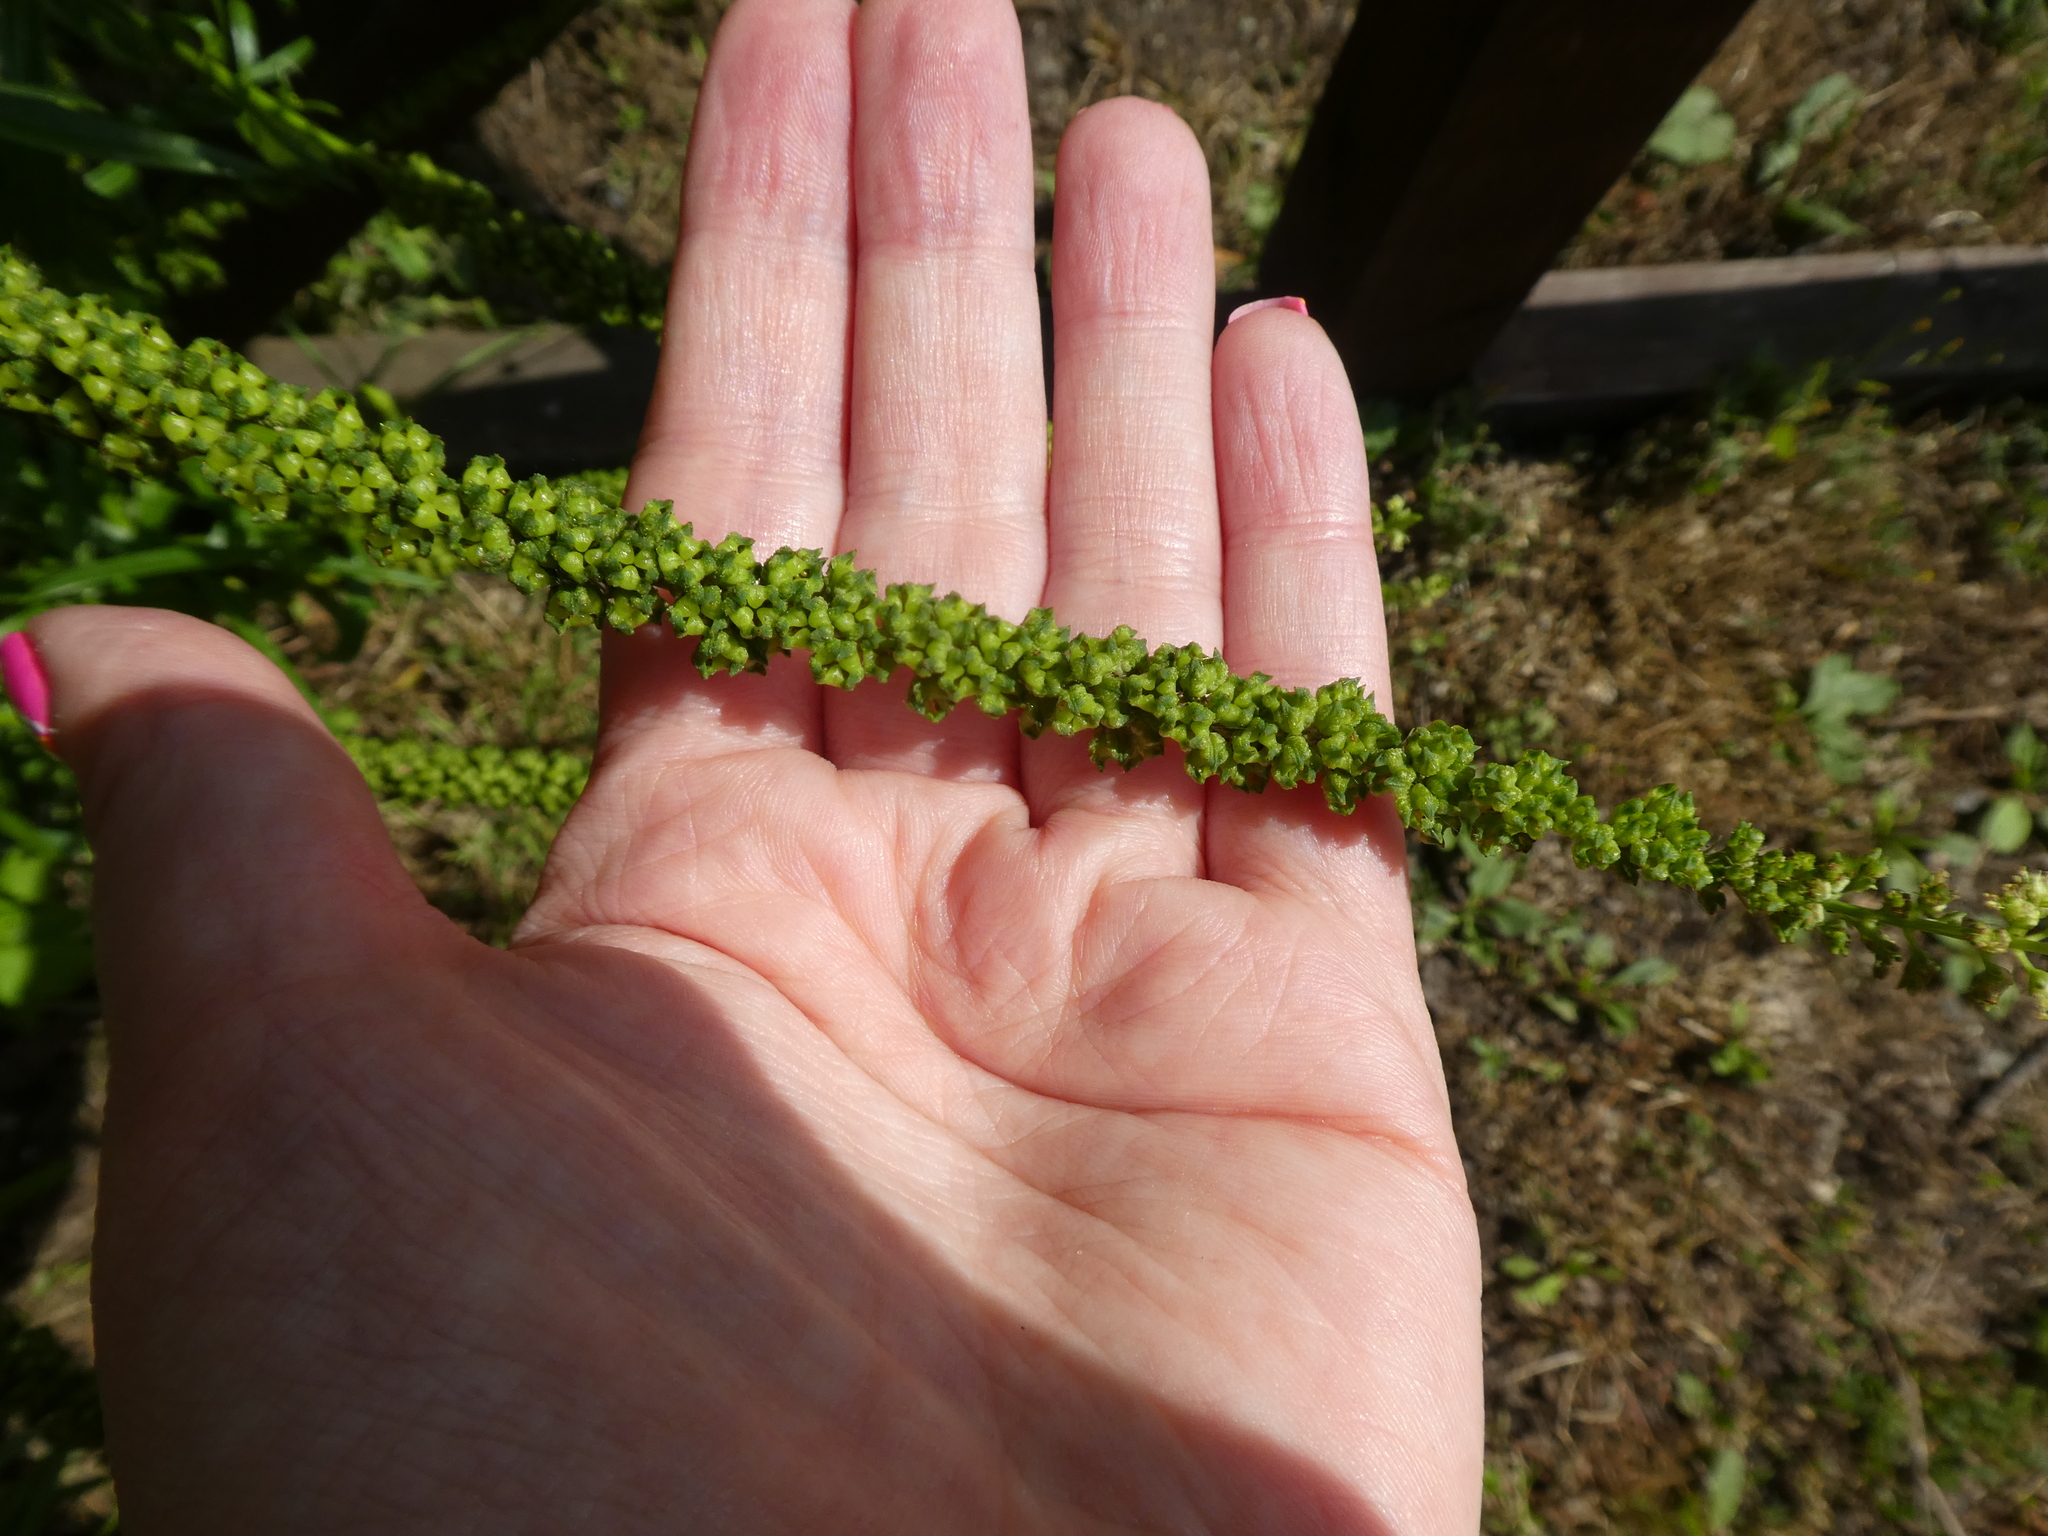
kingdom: Plantae
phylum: Tracheophyta
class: Magnoliopsida
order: Brassicales
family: Resedaceae
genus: Reseda
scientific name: Reseda luteola
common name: Weld
